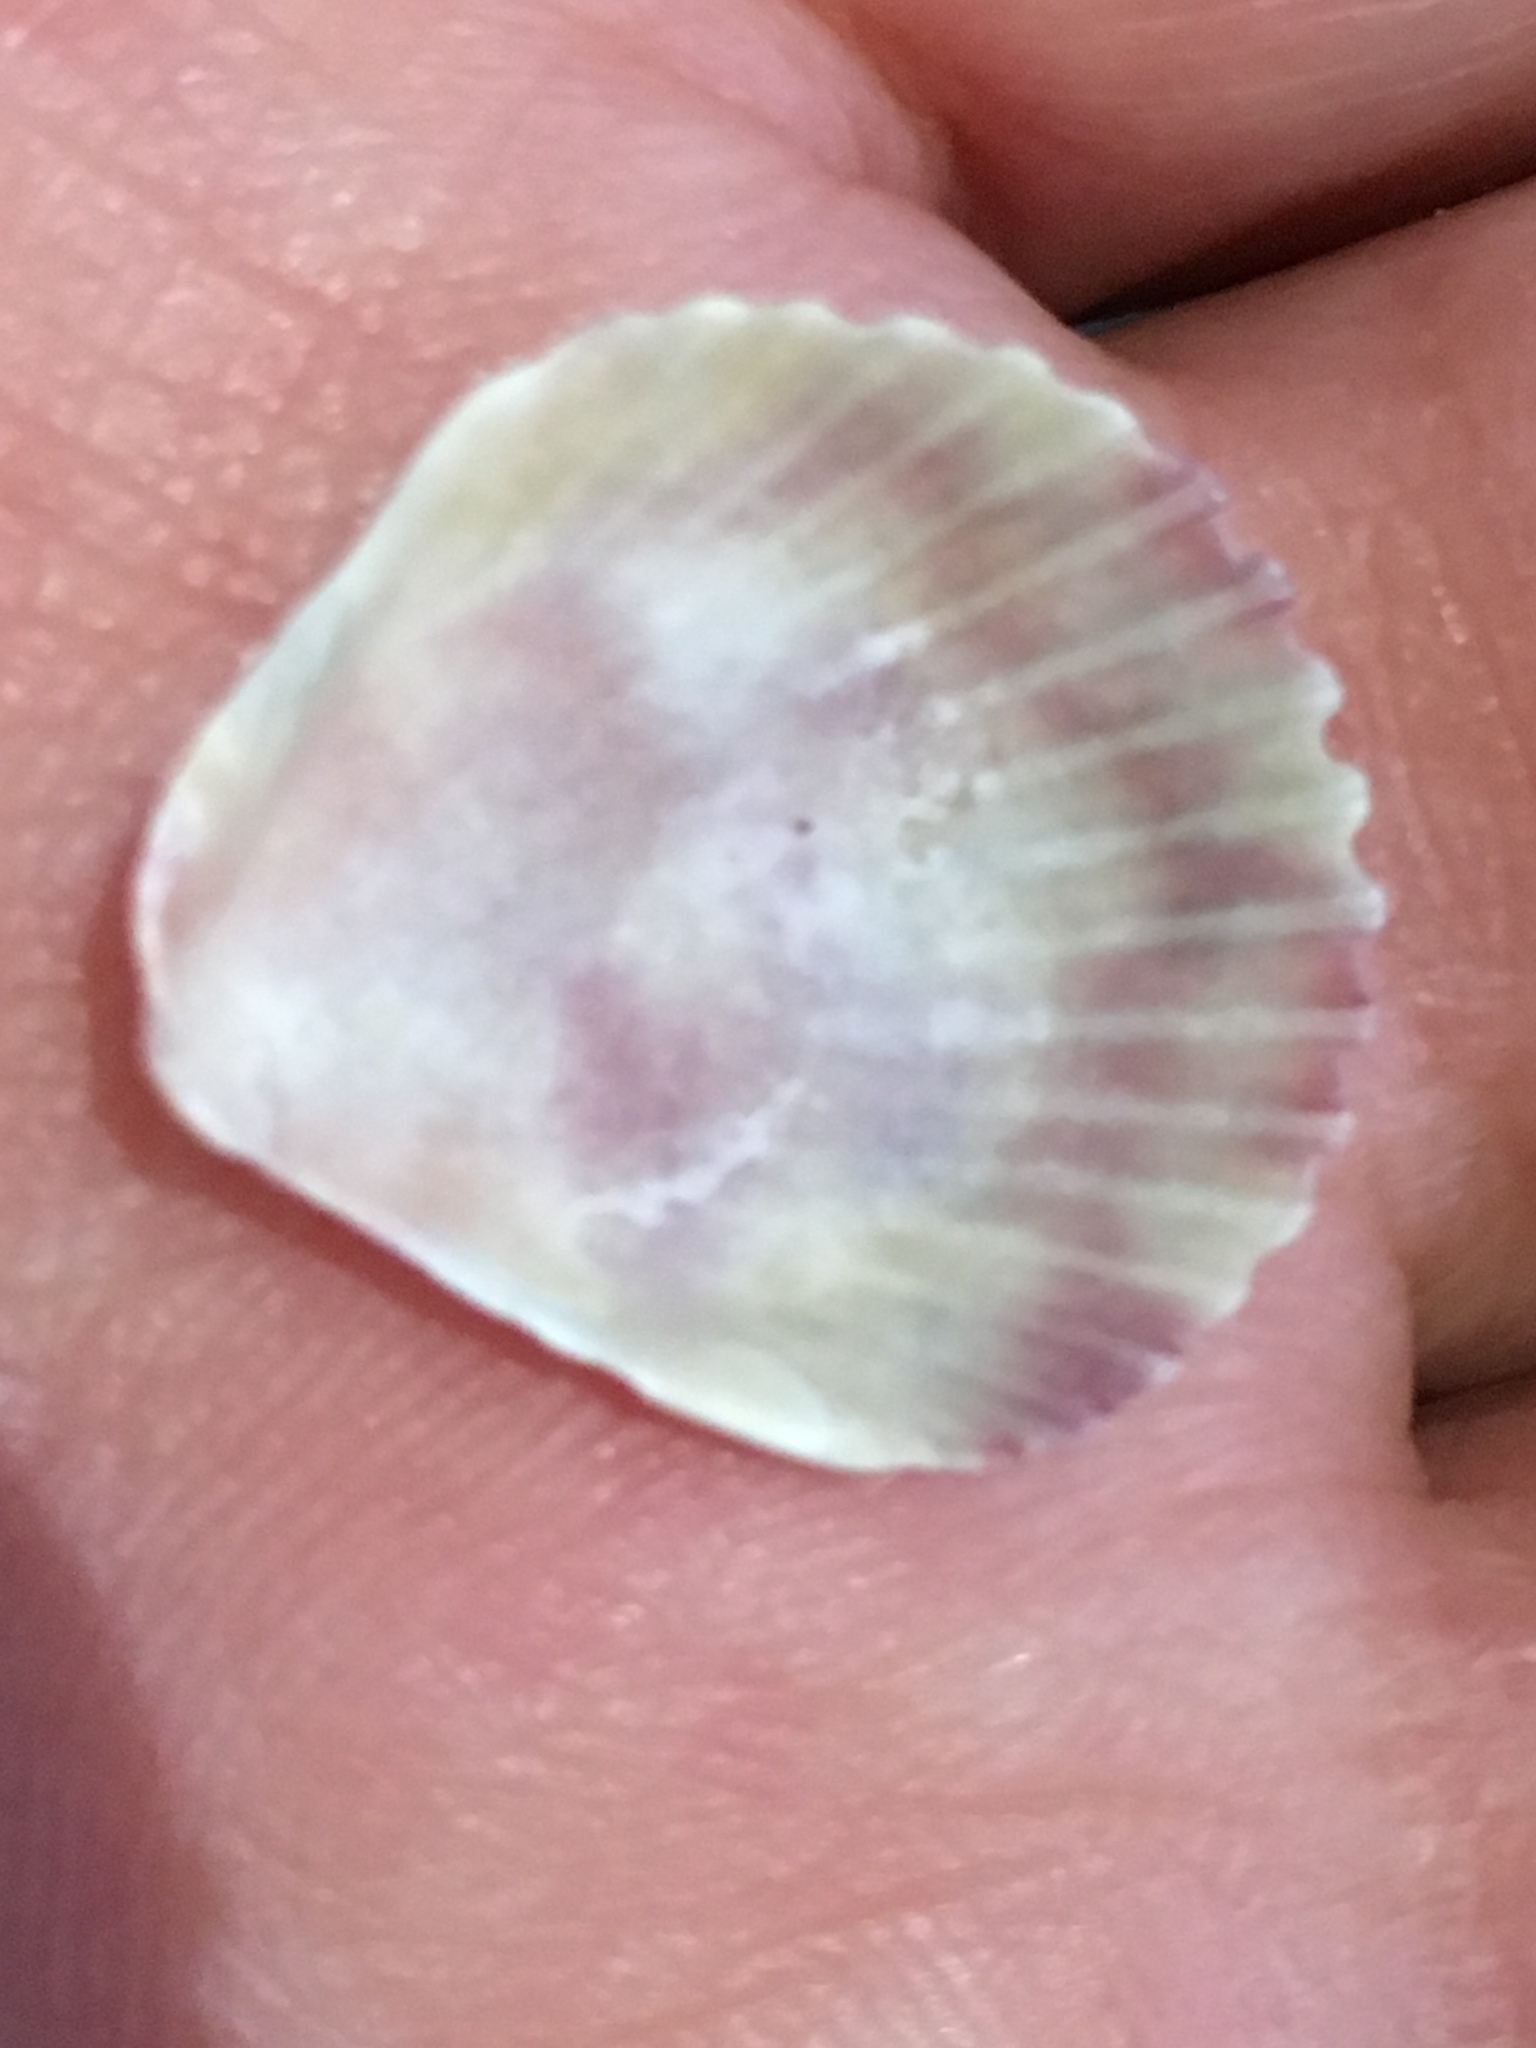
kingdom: Animalia
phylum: Mollusca
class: Bivalvia
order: Pectinida
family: Pectinidae
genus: Argopecten
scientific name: Argopecten gibbus
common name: Atlantic calico scallop
